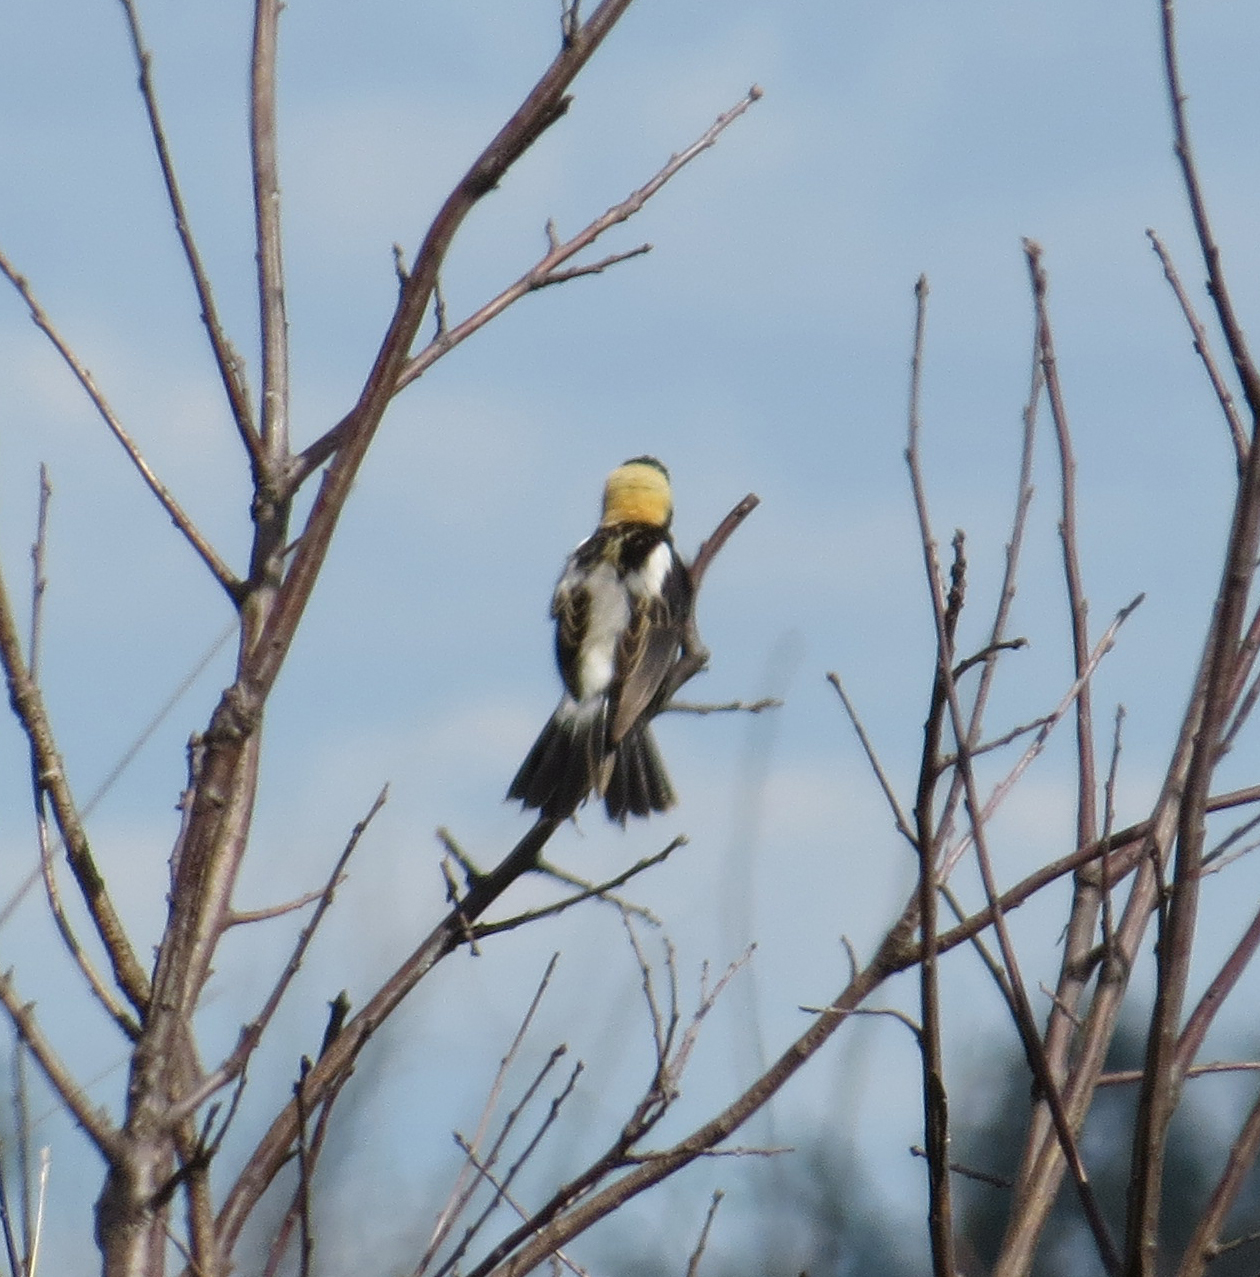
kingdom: Animalia
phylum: Chordata
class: Aves
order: Passeriformes
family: Icteridae
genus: Dolichonyx
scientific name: Dolichonyx oryzivorus
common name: Bobolink
